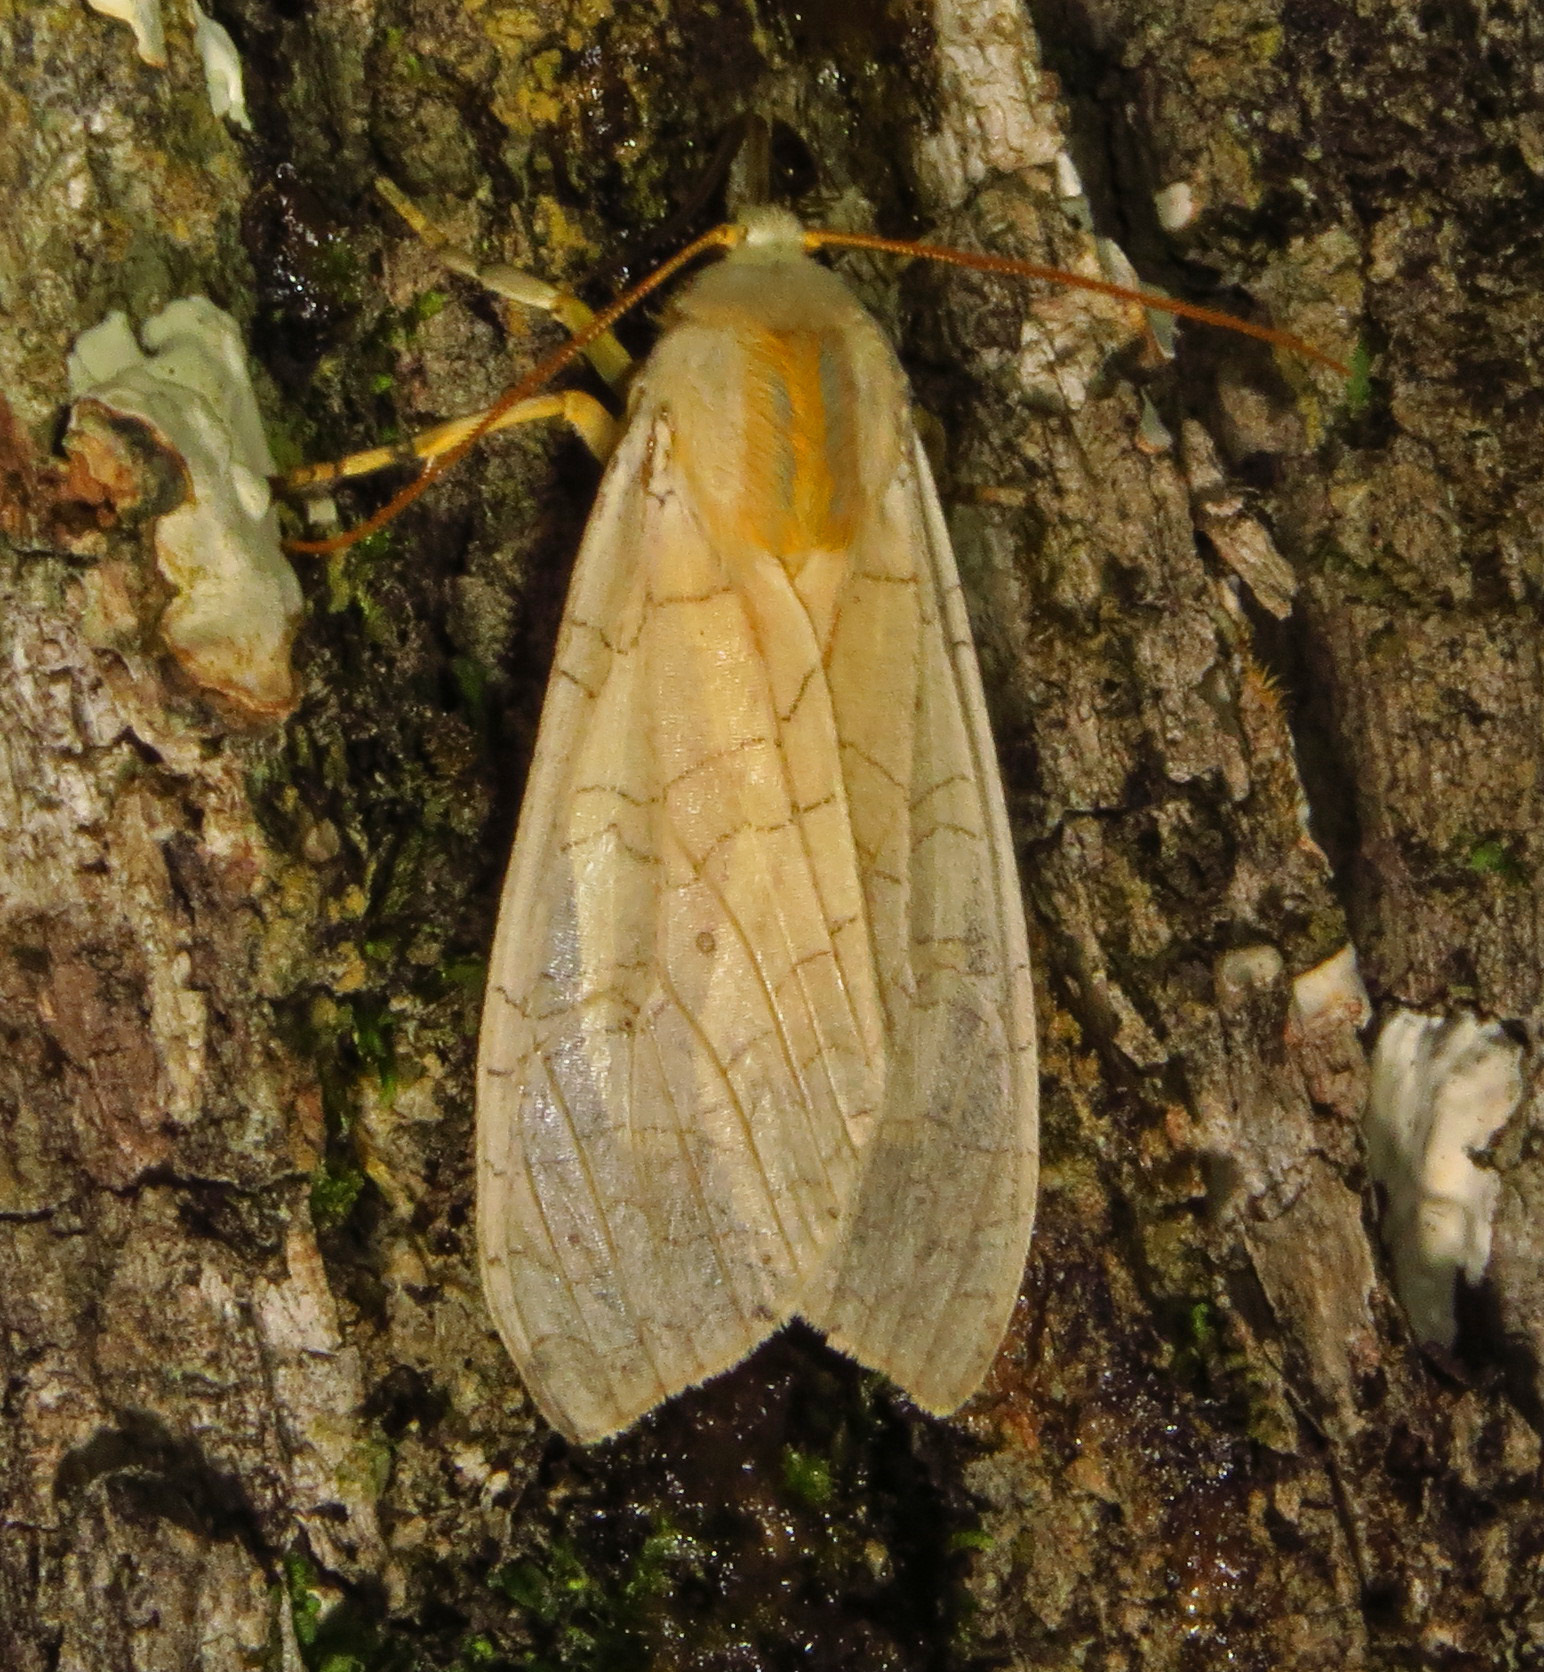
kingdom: Animalia
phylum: Arthropoda
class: Insecta
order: Lepidoptera
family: Erebidae
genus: Halysidota
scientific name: Halysidota
